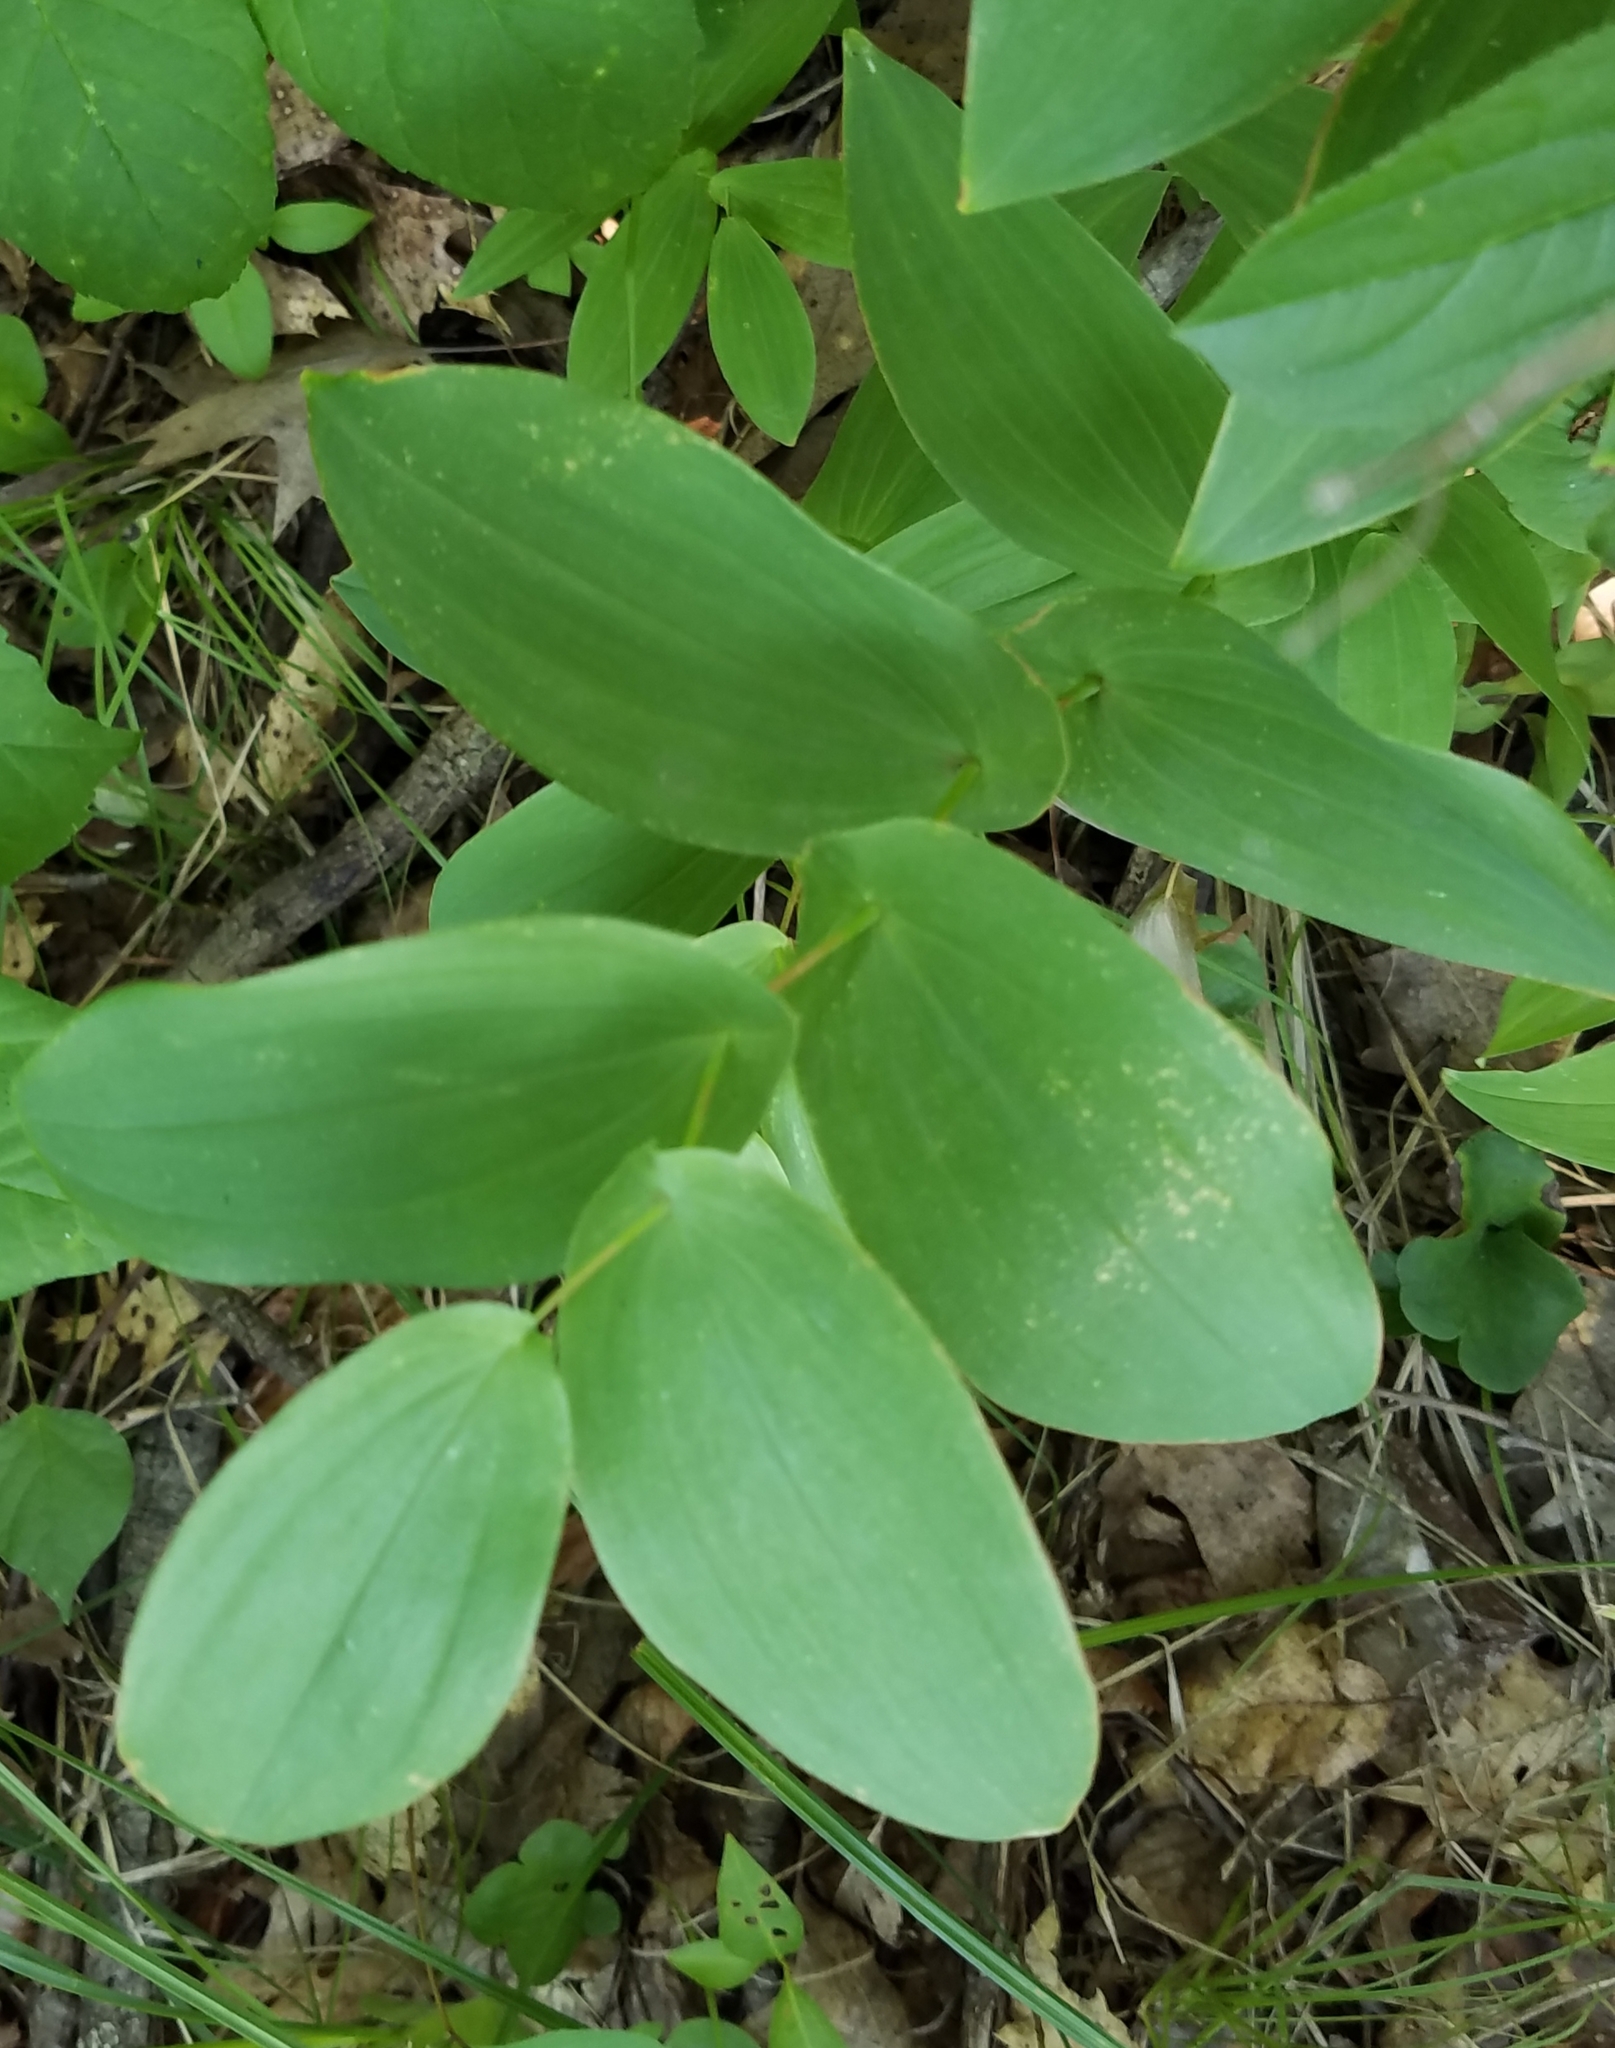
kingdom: Plantae
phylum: Tracheophyta
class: Liliopsida
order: Liliales
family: Colchicaceae
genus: Uvularia
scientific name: Uvularia grandiflora
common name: Bellwort
